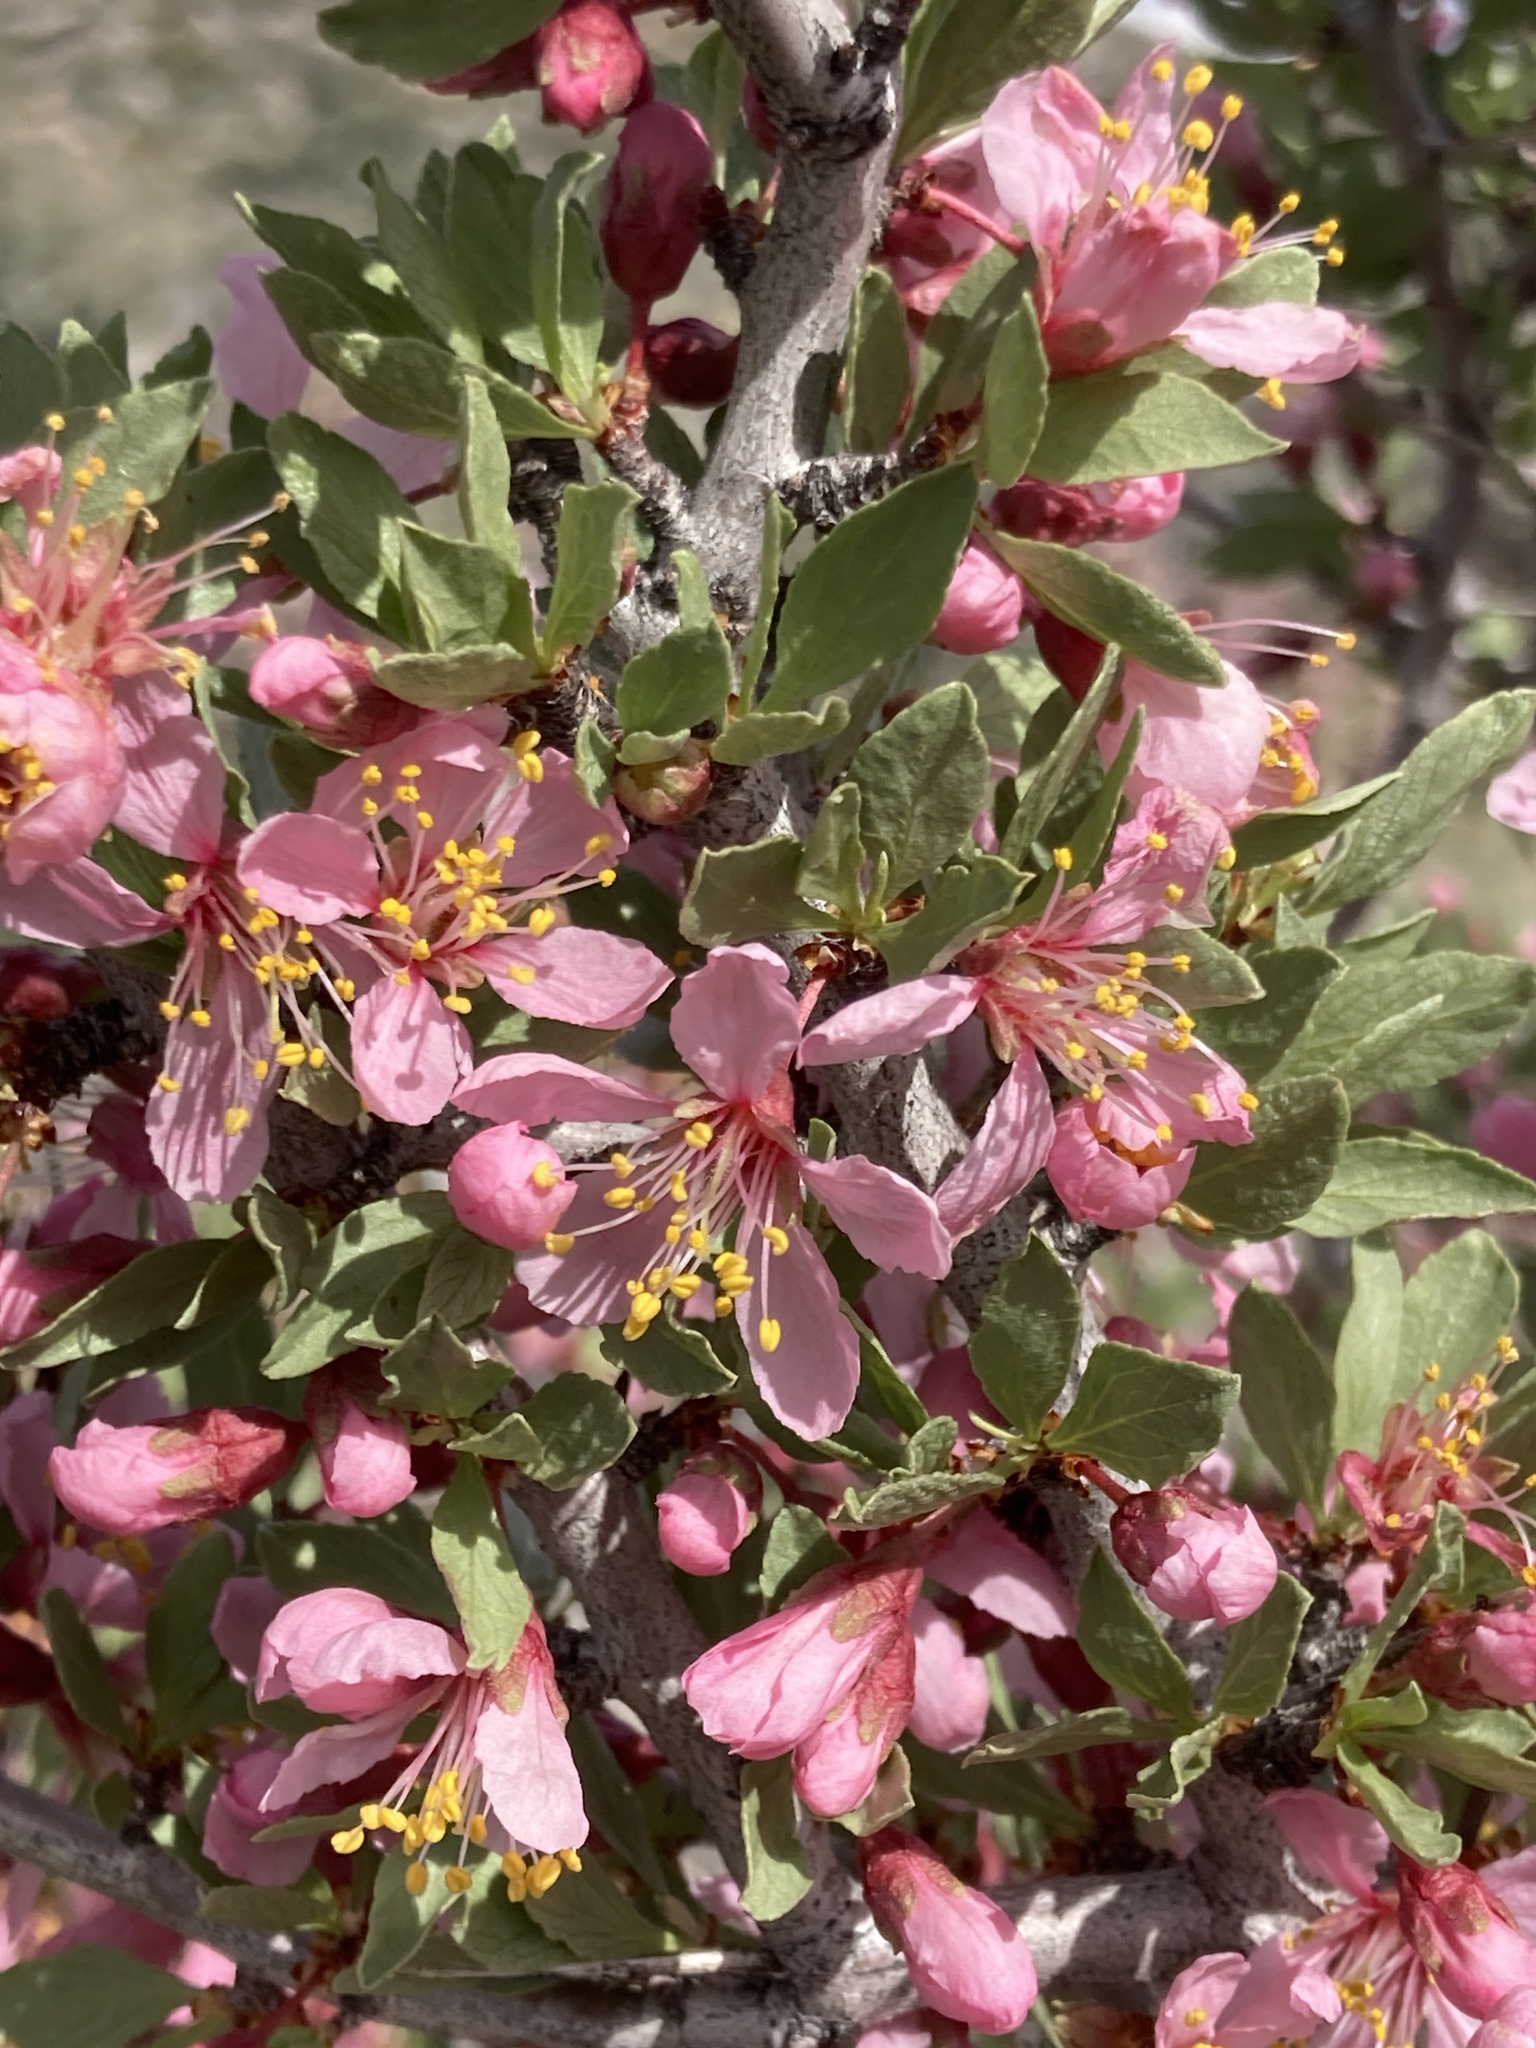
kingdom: Plantae
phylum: Tracheophyta
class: Magnoliopsida
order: Rosales
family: Rosaceae
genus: Prunus
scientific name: Prunus andersonii
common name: Desert peach
